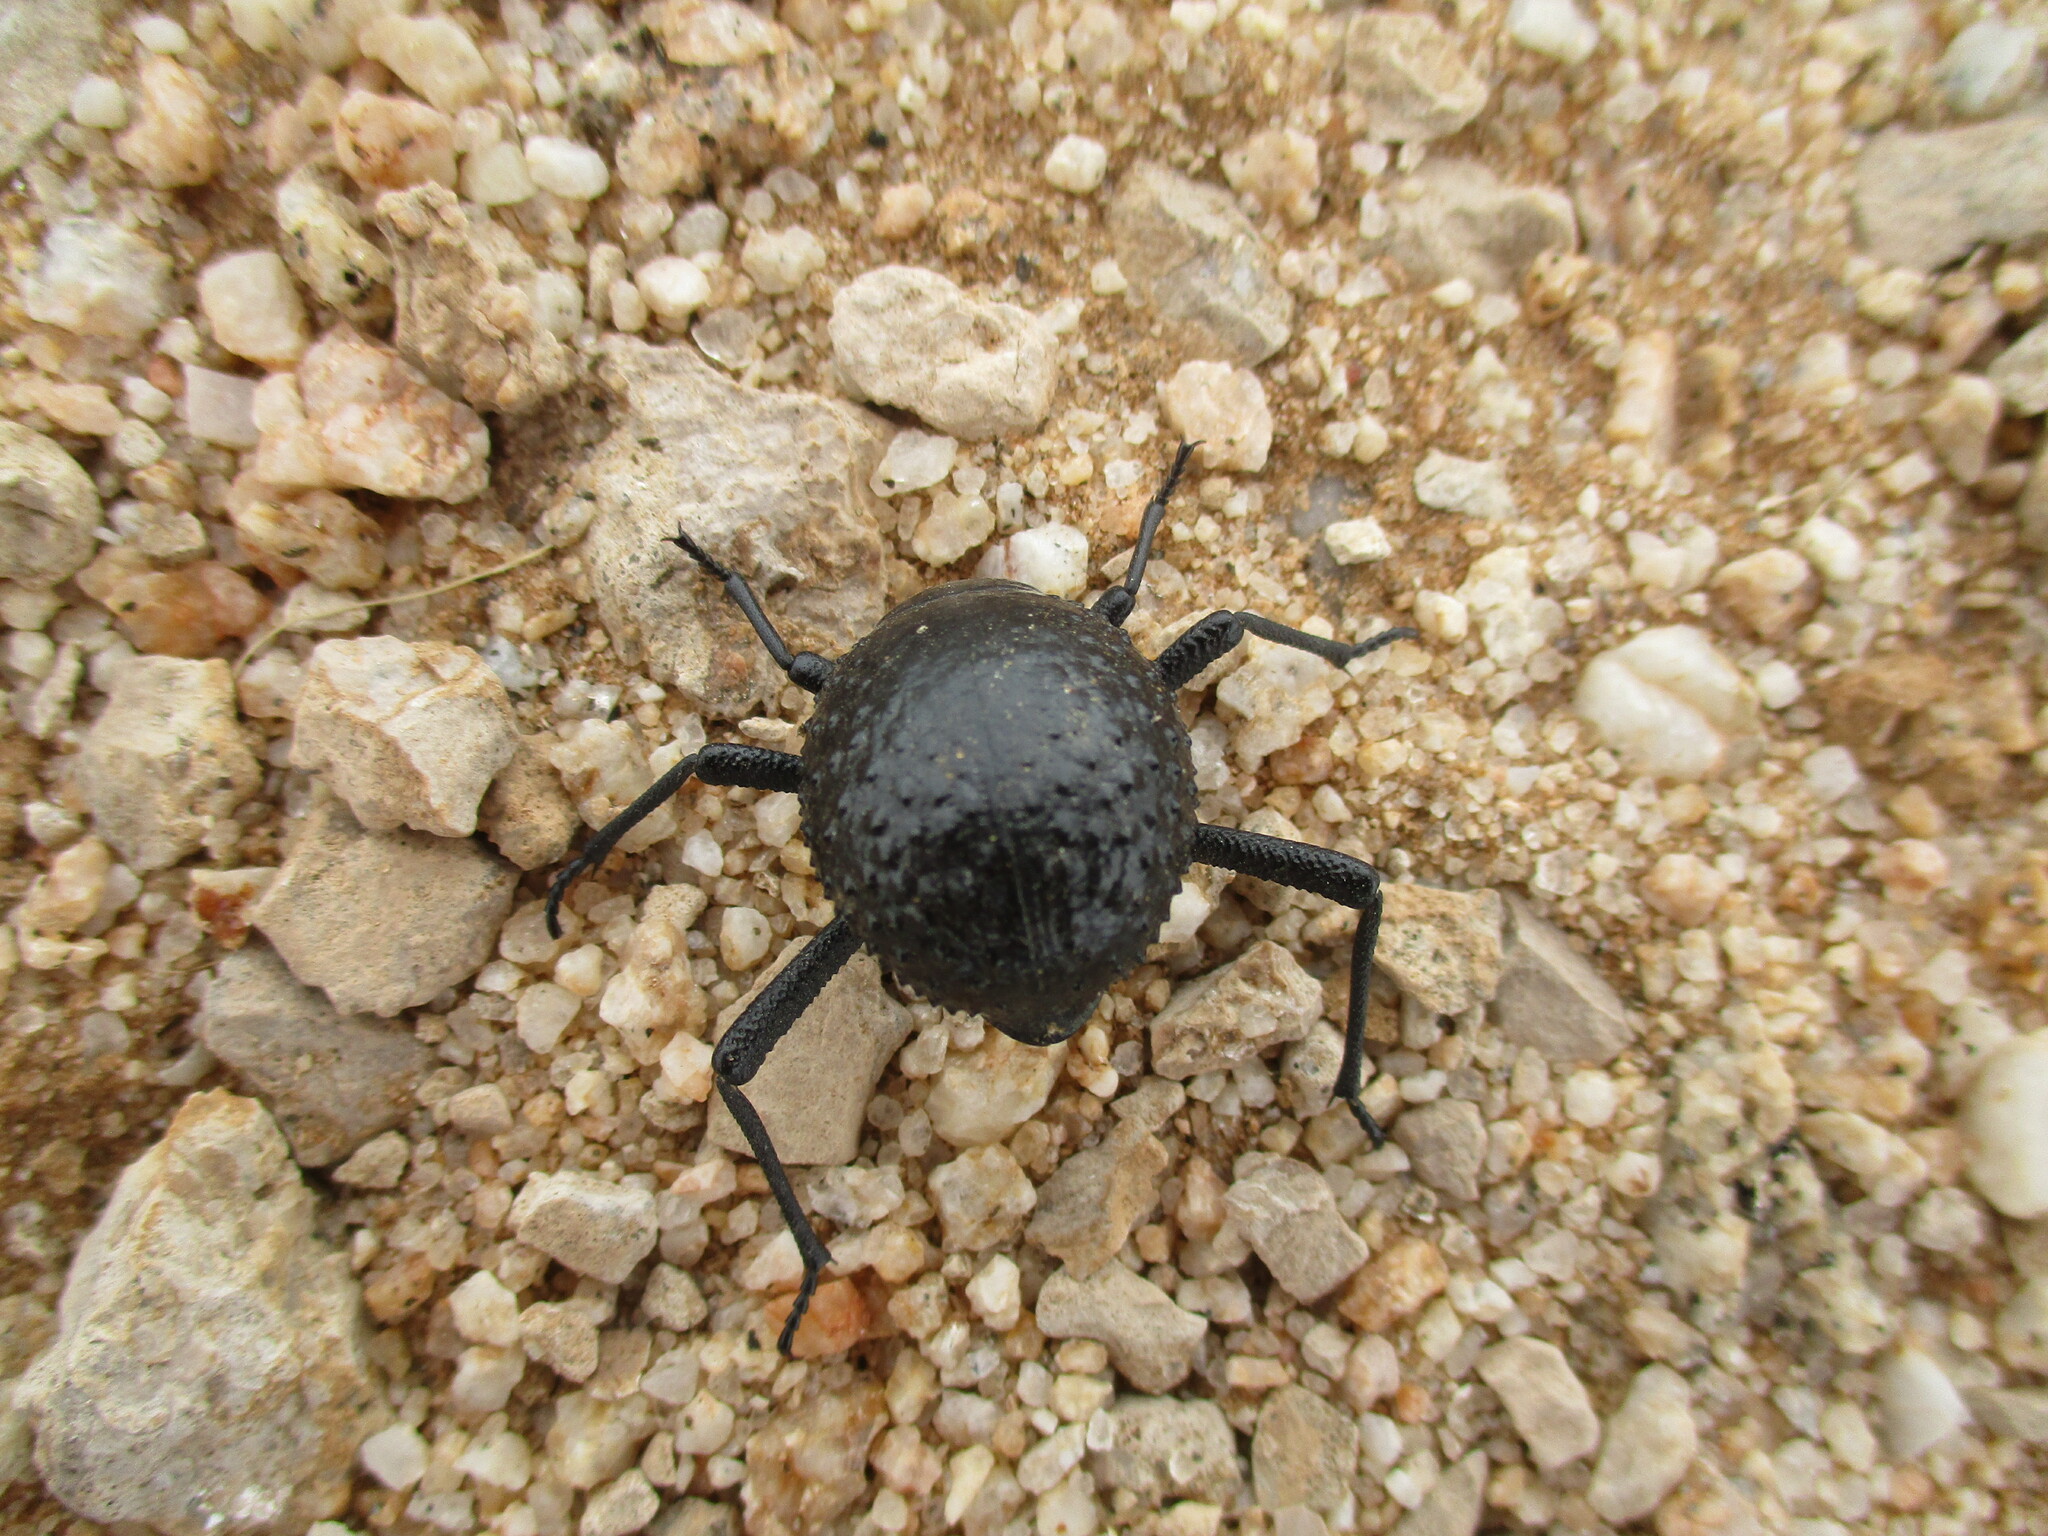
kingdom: Animalia
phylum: Arthropoda
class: Insecta
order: Coleoptera
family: Tenebrionidae
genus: Adesmia
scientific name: Adesmia
